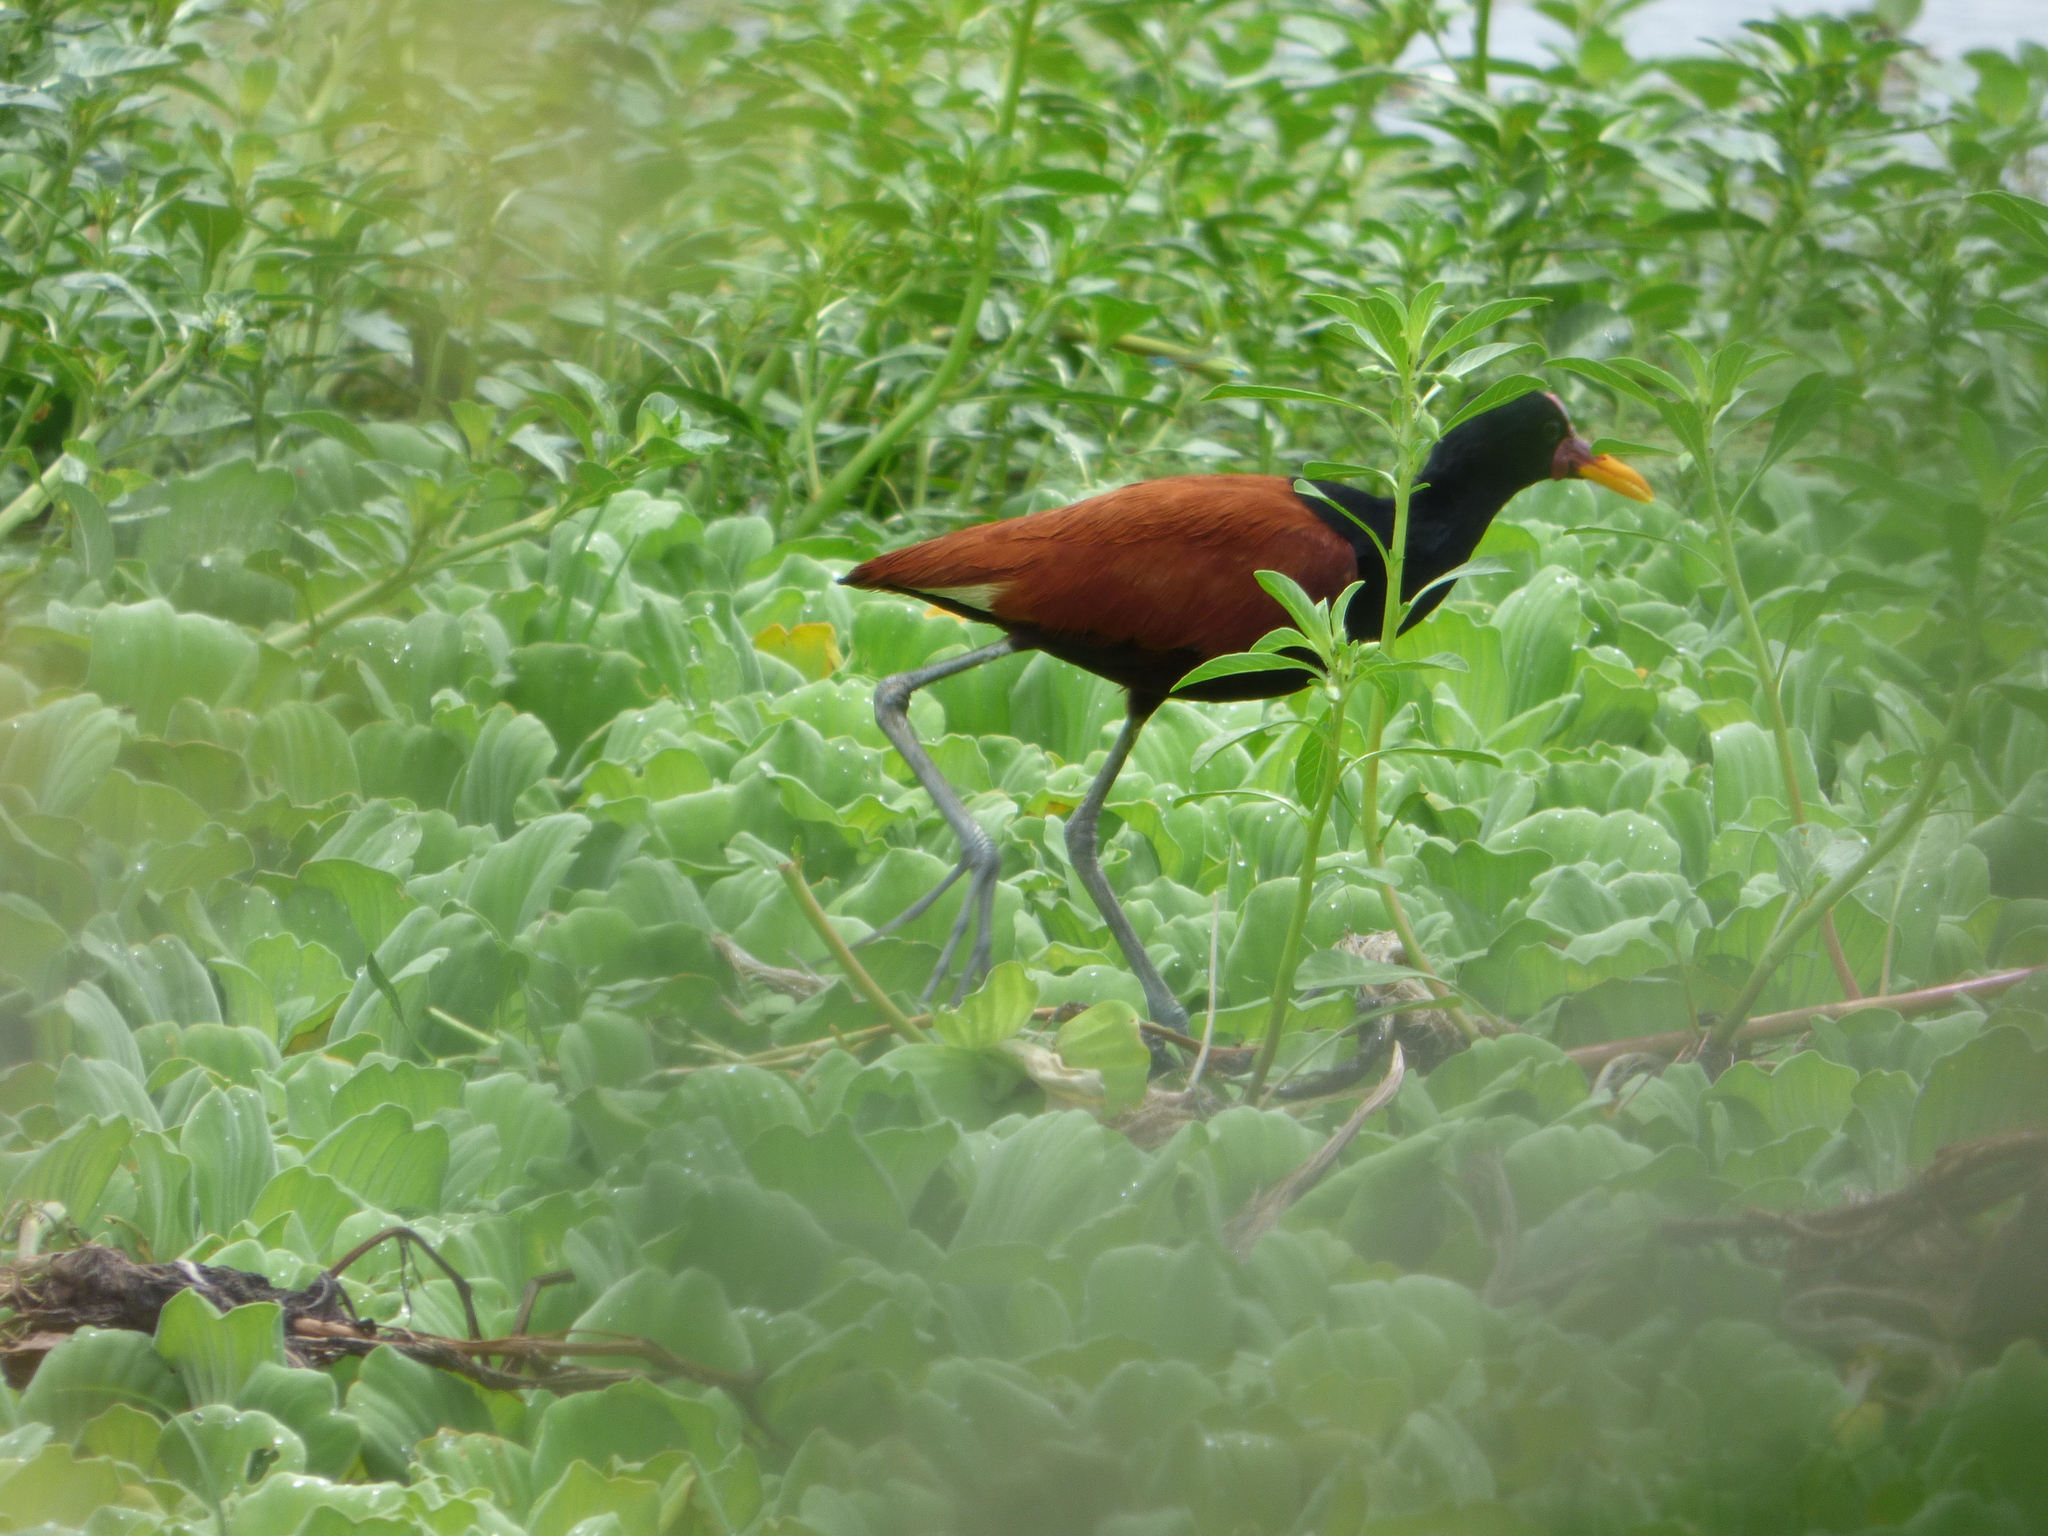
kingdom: Animalia
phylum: Chordata
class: Aves
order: Charadriiformes
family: Jacanidae
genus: Jacana
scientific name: Jacana jacana
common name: Wattled jacana
